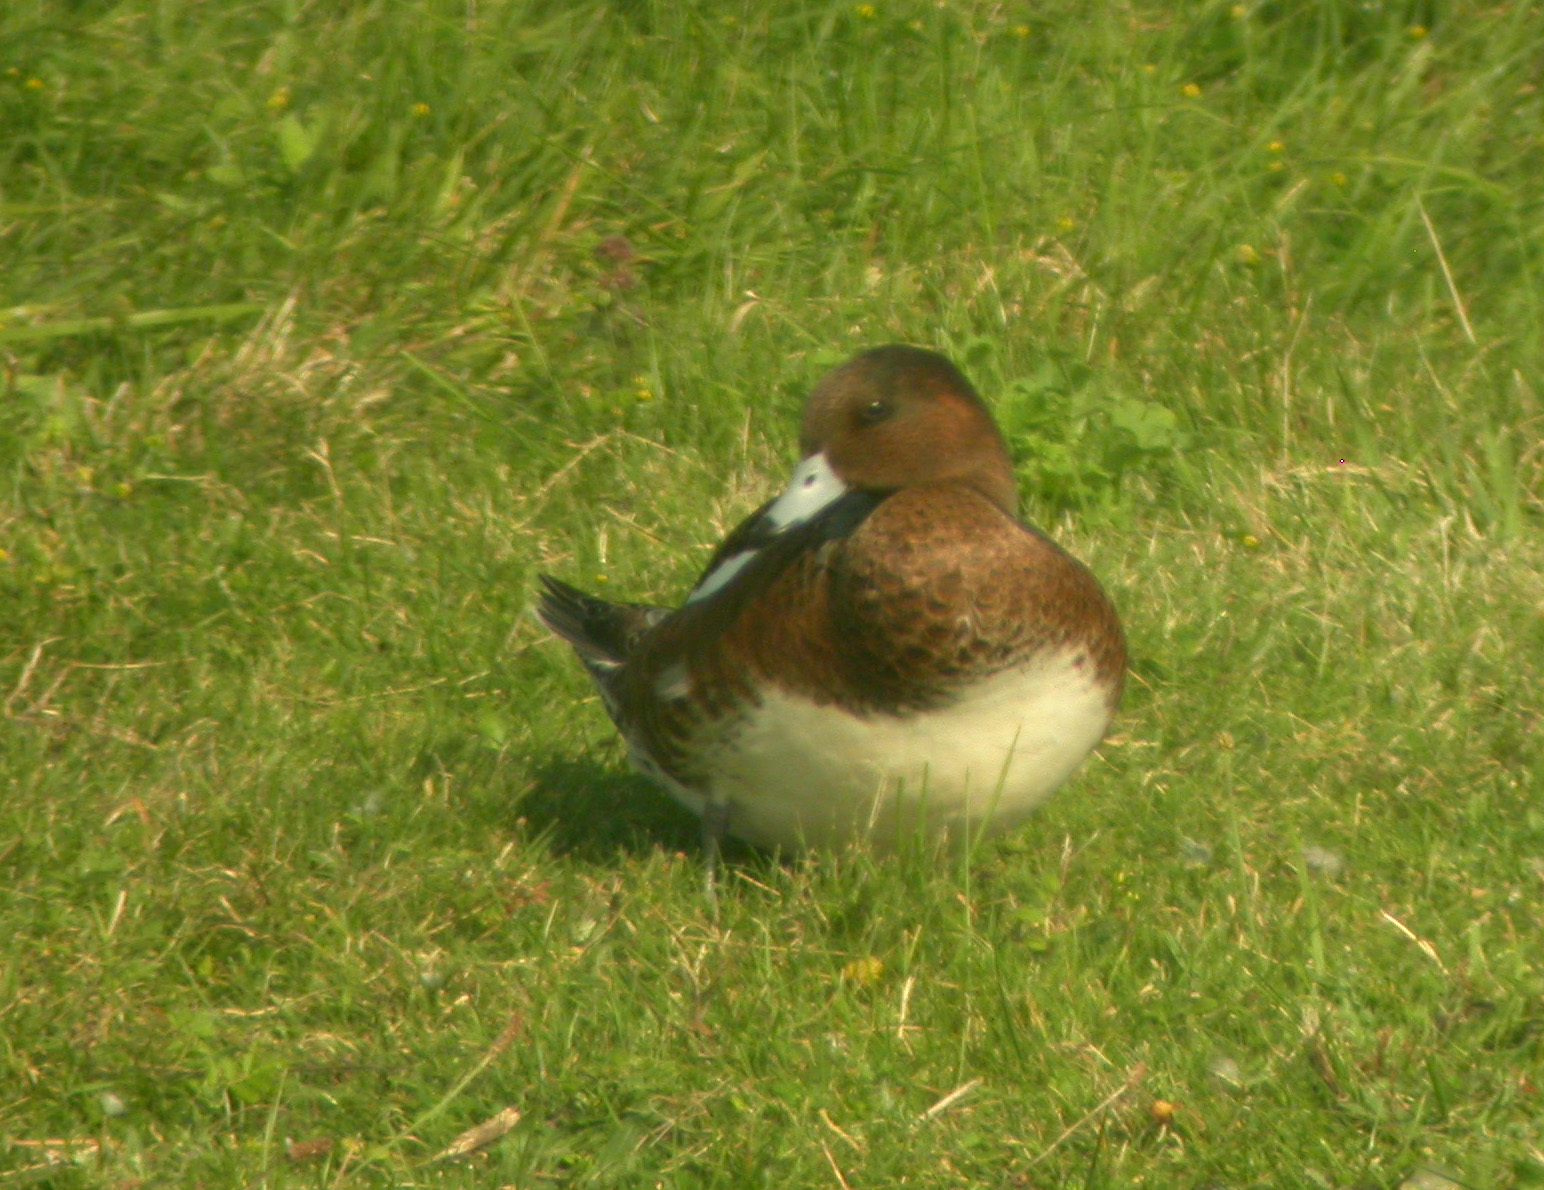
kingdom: Animalia
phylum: Chordata
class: Aves
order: Anseriformes
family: Anatidae
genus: Mareca
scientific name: Mareca penelope
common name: Eurasian wigeon
